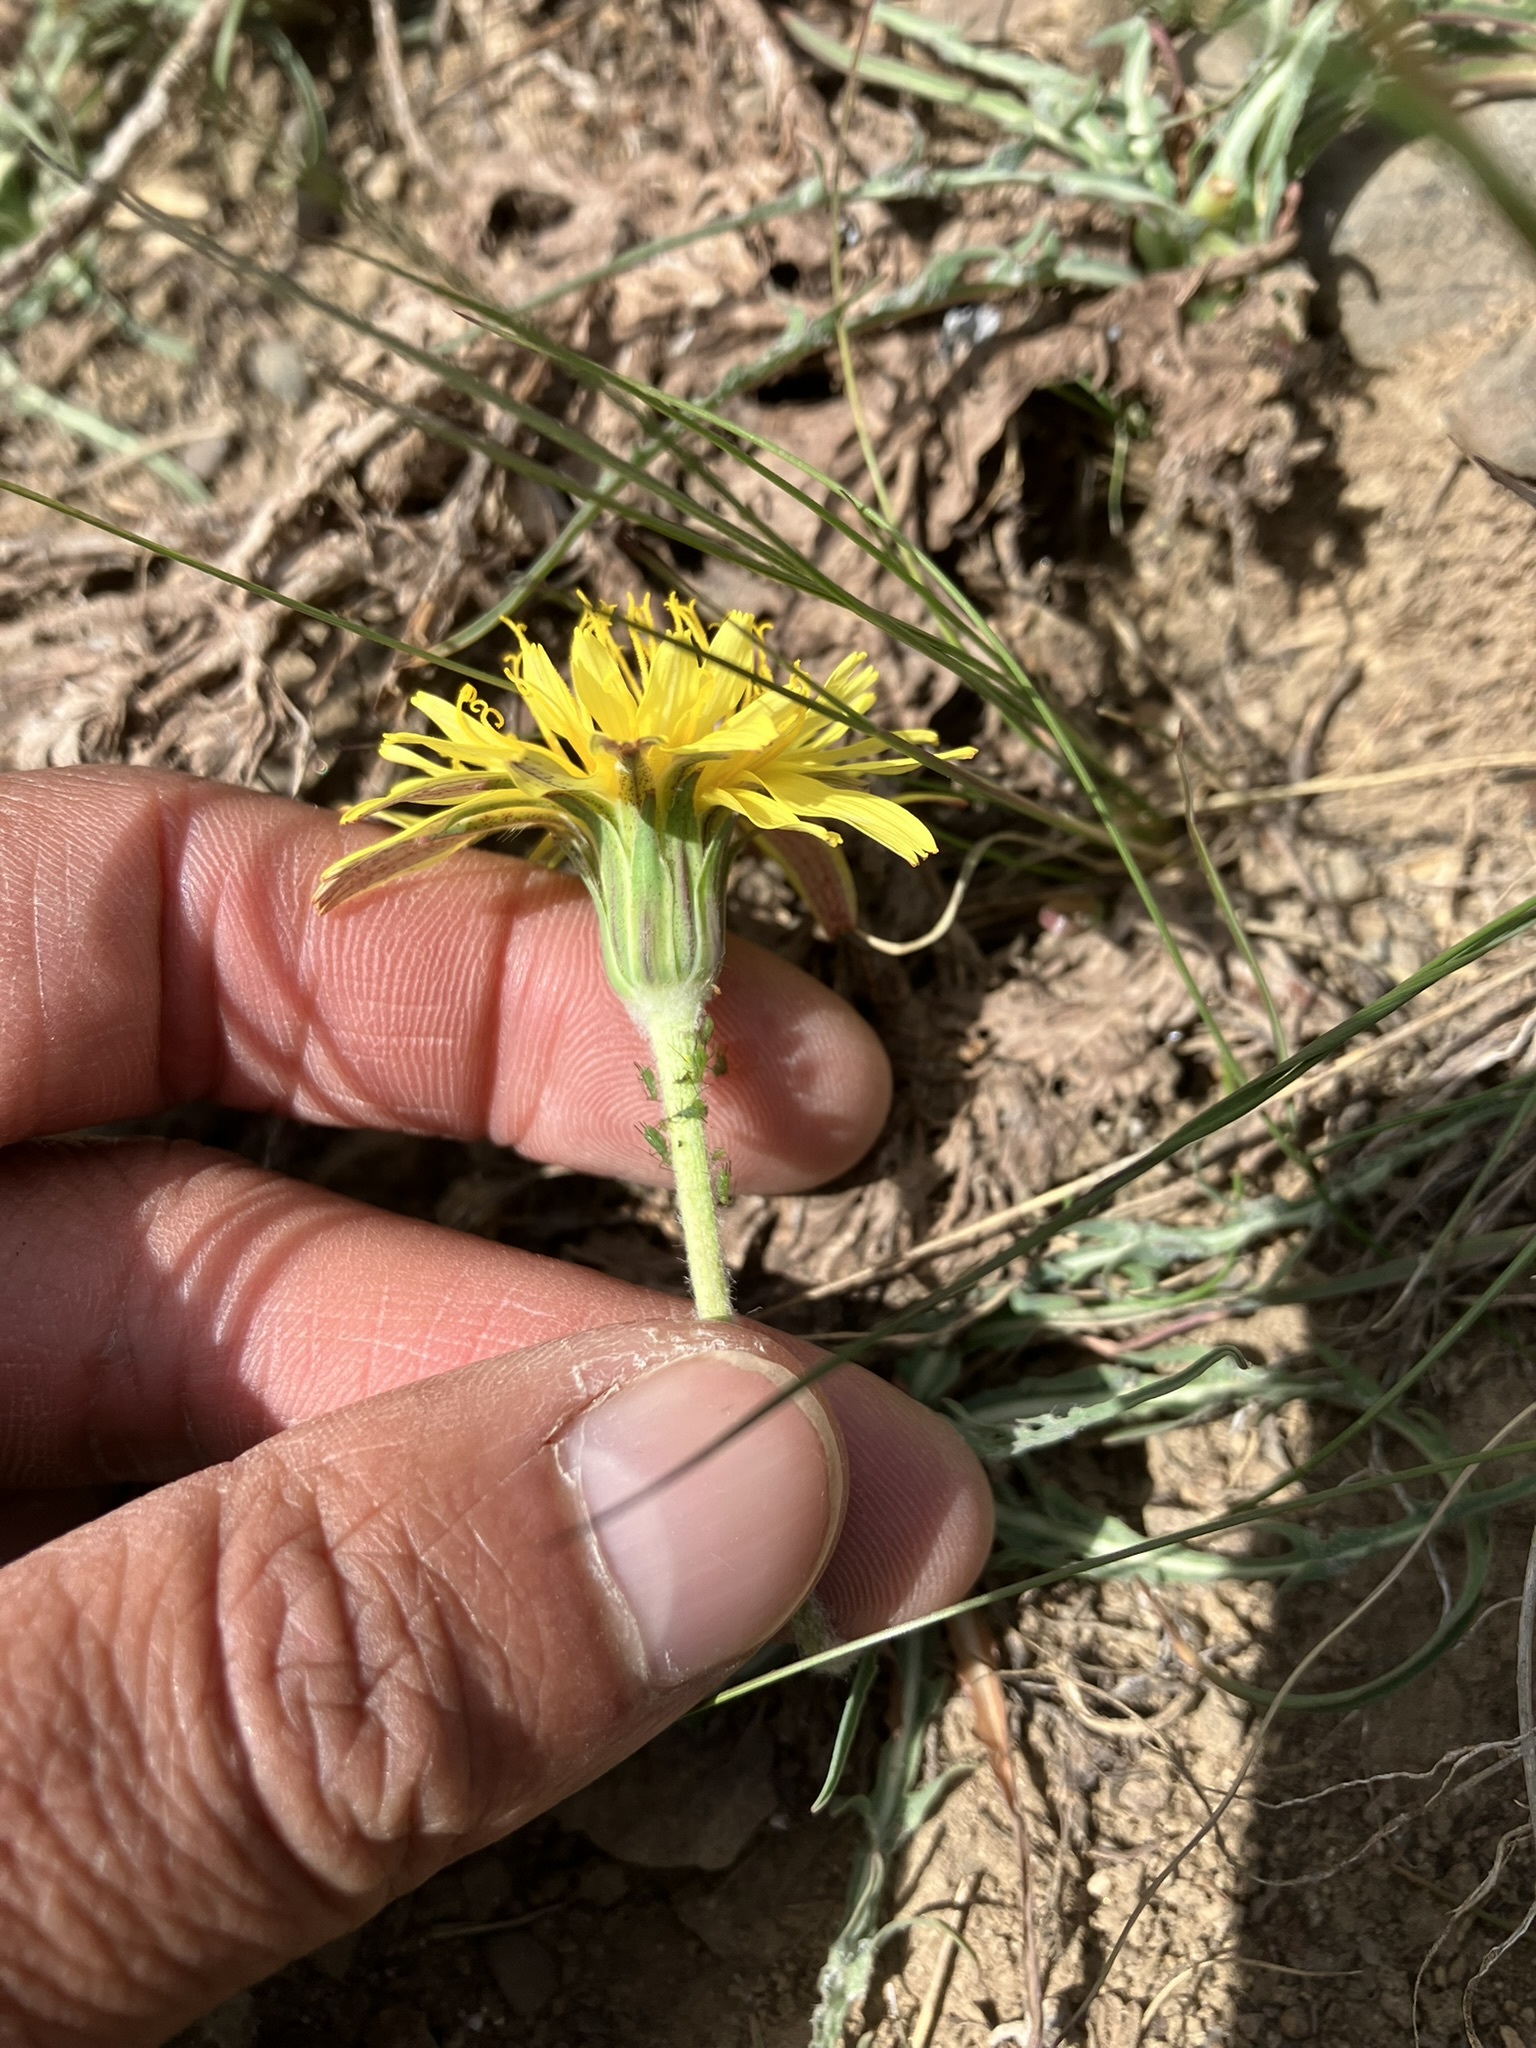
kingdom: Plantae
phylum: Tracheophyta
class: Magnoliopsida
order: Asterales
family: Asteraceae
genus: Agoseris
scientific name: Agoseris parviflora
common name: Steppe agoseris
